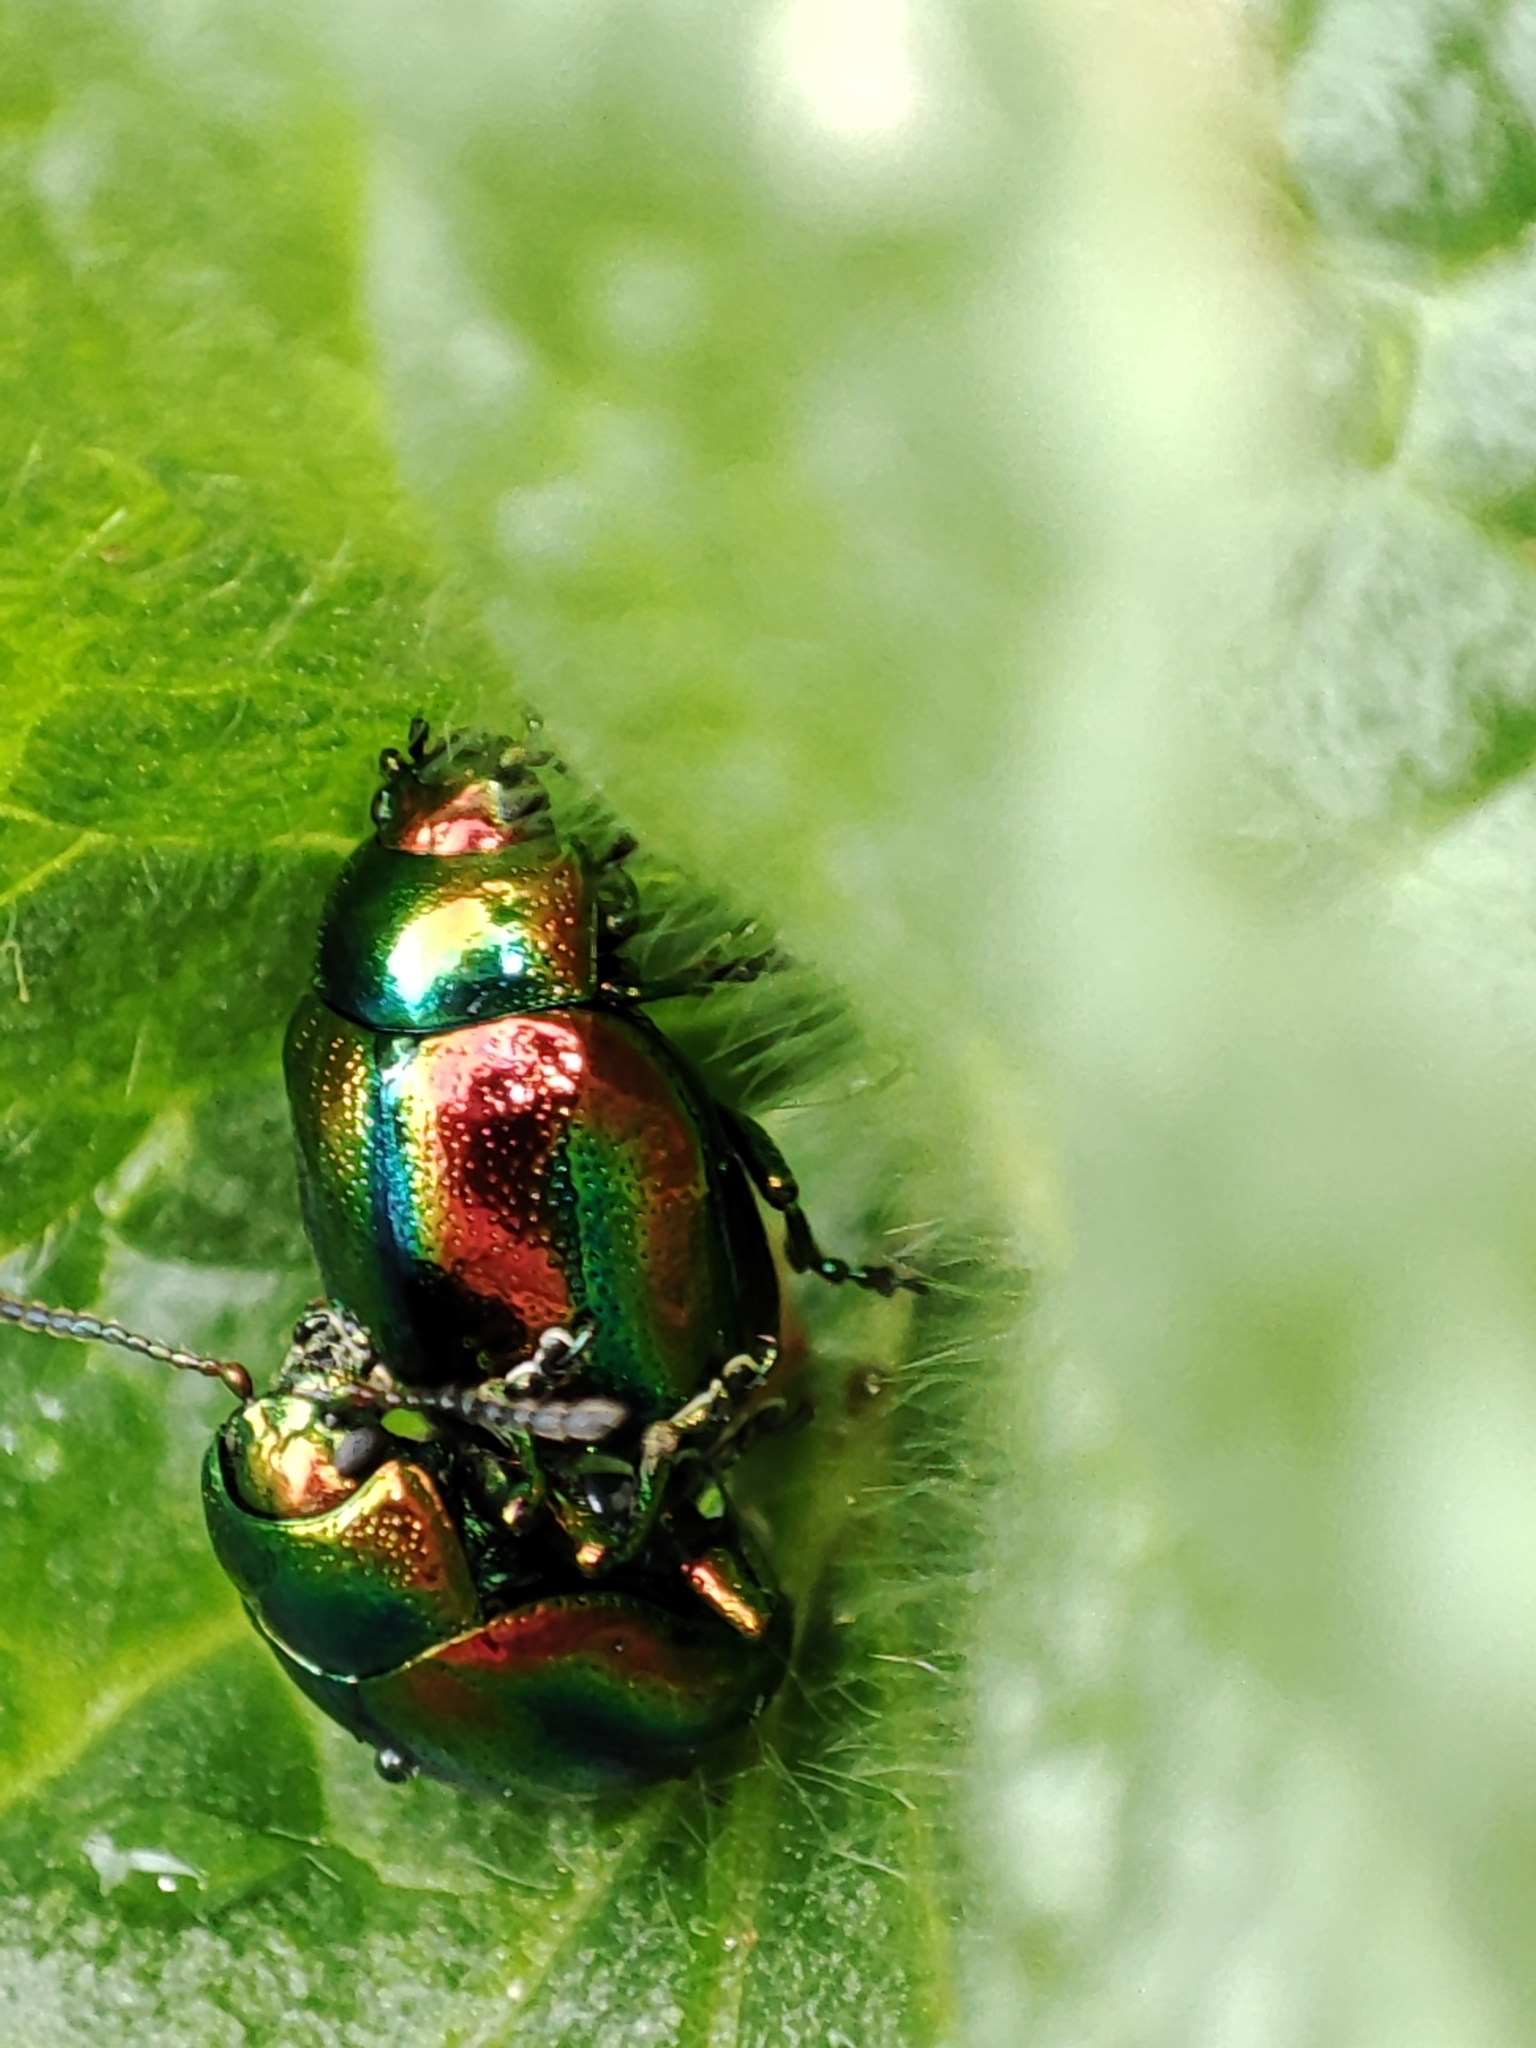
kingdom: Animalia
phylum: Arthropoda
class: Insecta
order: Coleoptera
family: Chrysomelidae
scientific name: Chrysomelidae
